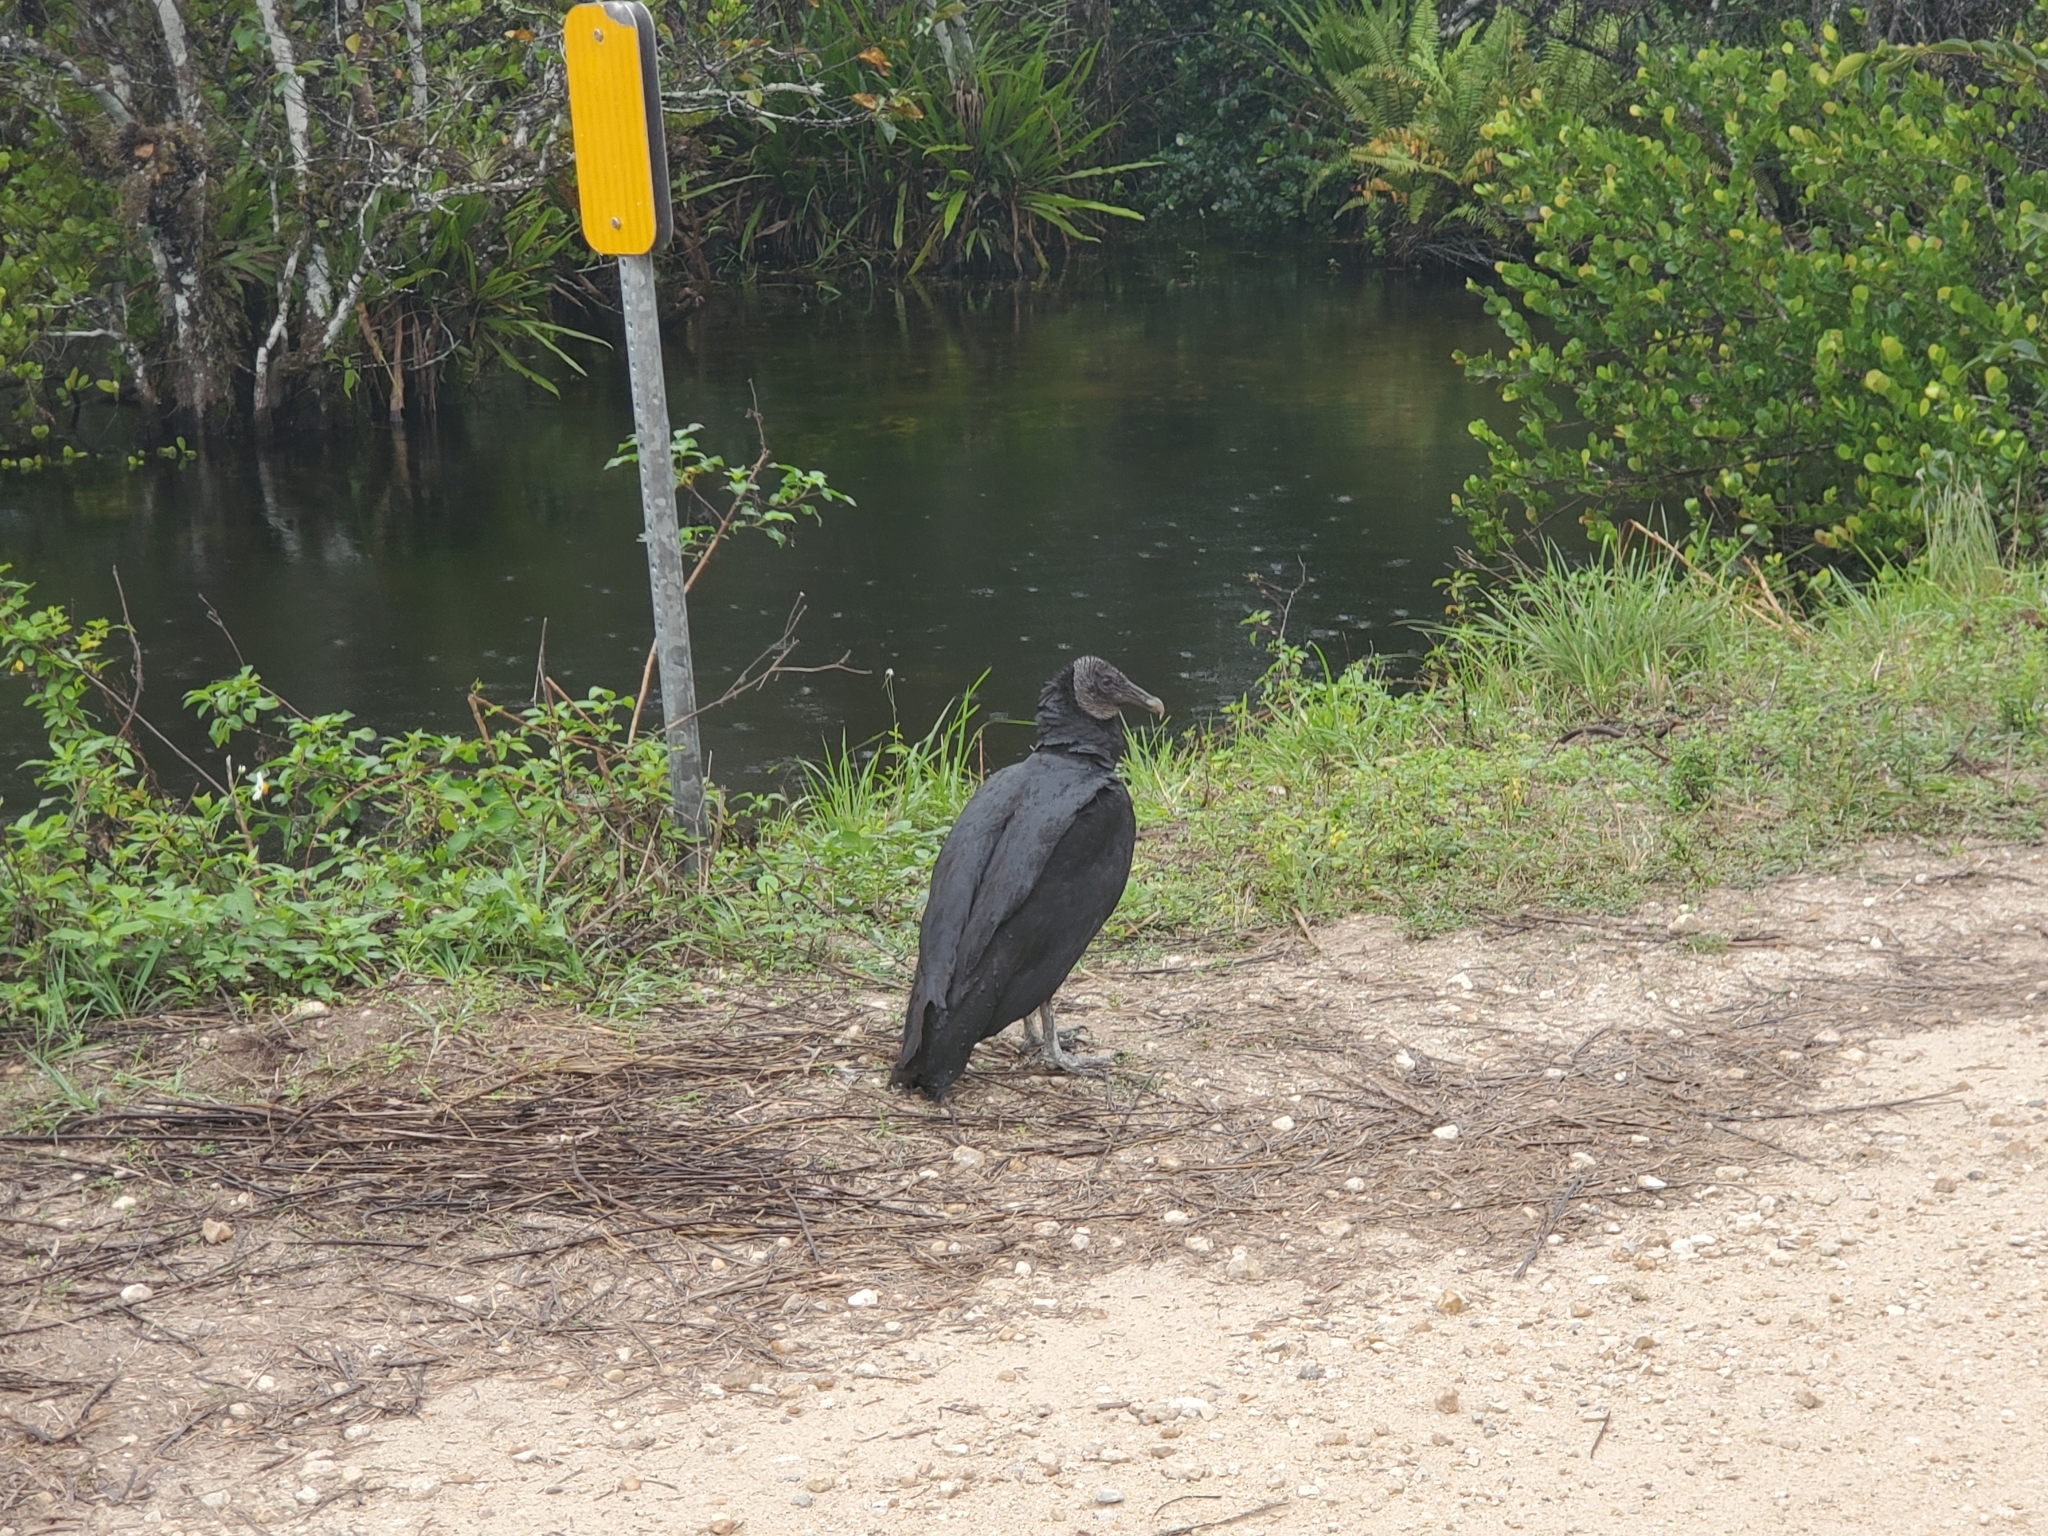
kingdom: Animalia
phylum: Chordata
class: Aves
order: Accipitriformes
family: Cathartidae
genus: Coragyps
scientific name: Coragyps atratus
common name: Black vulture
